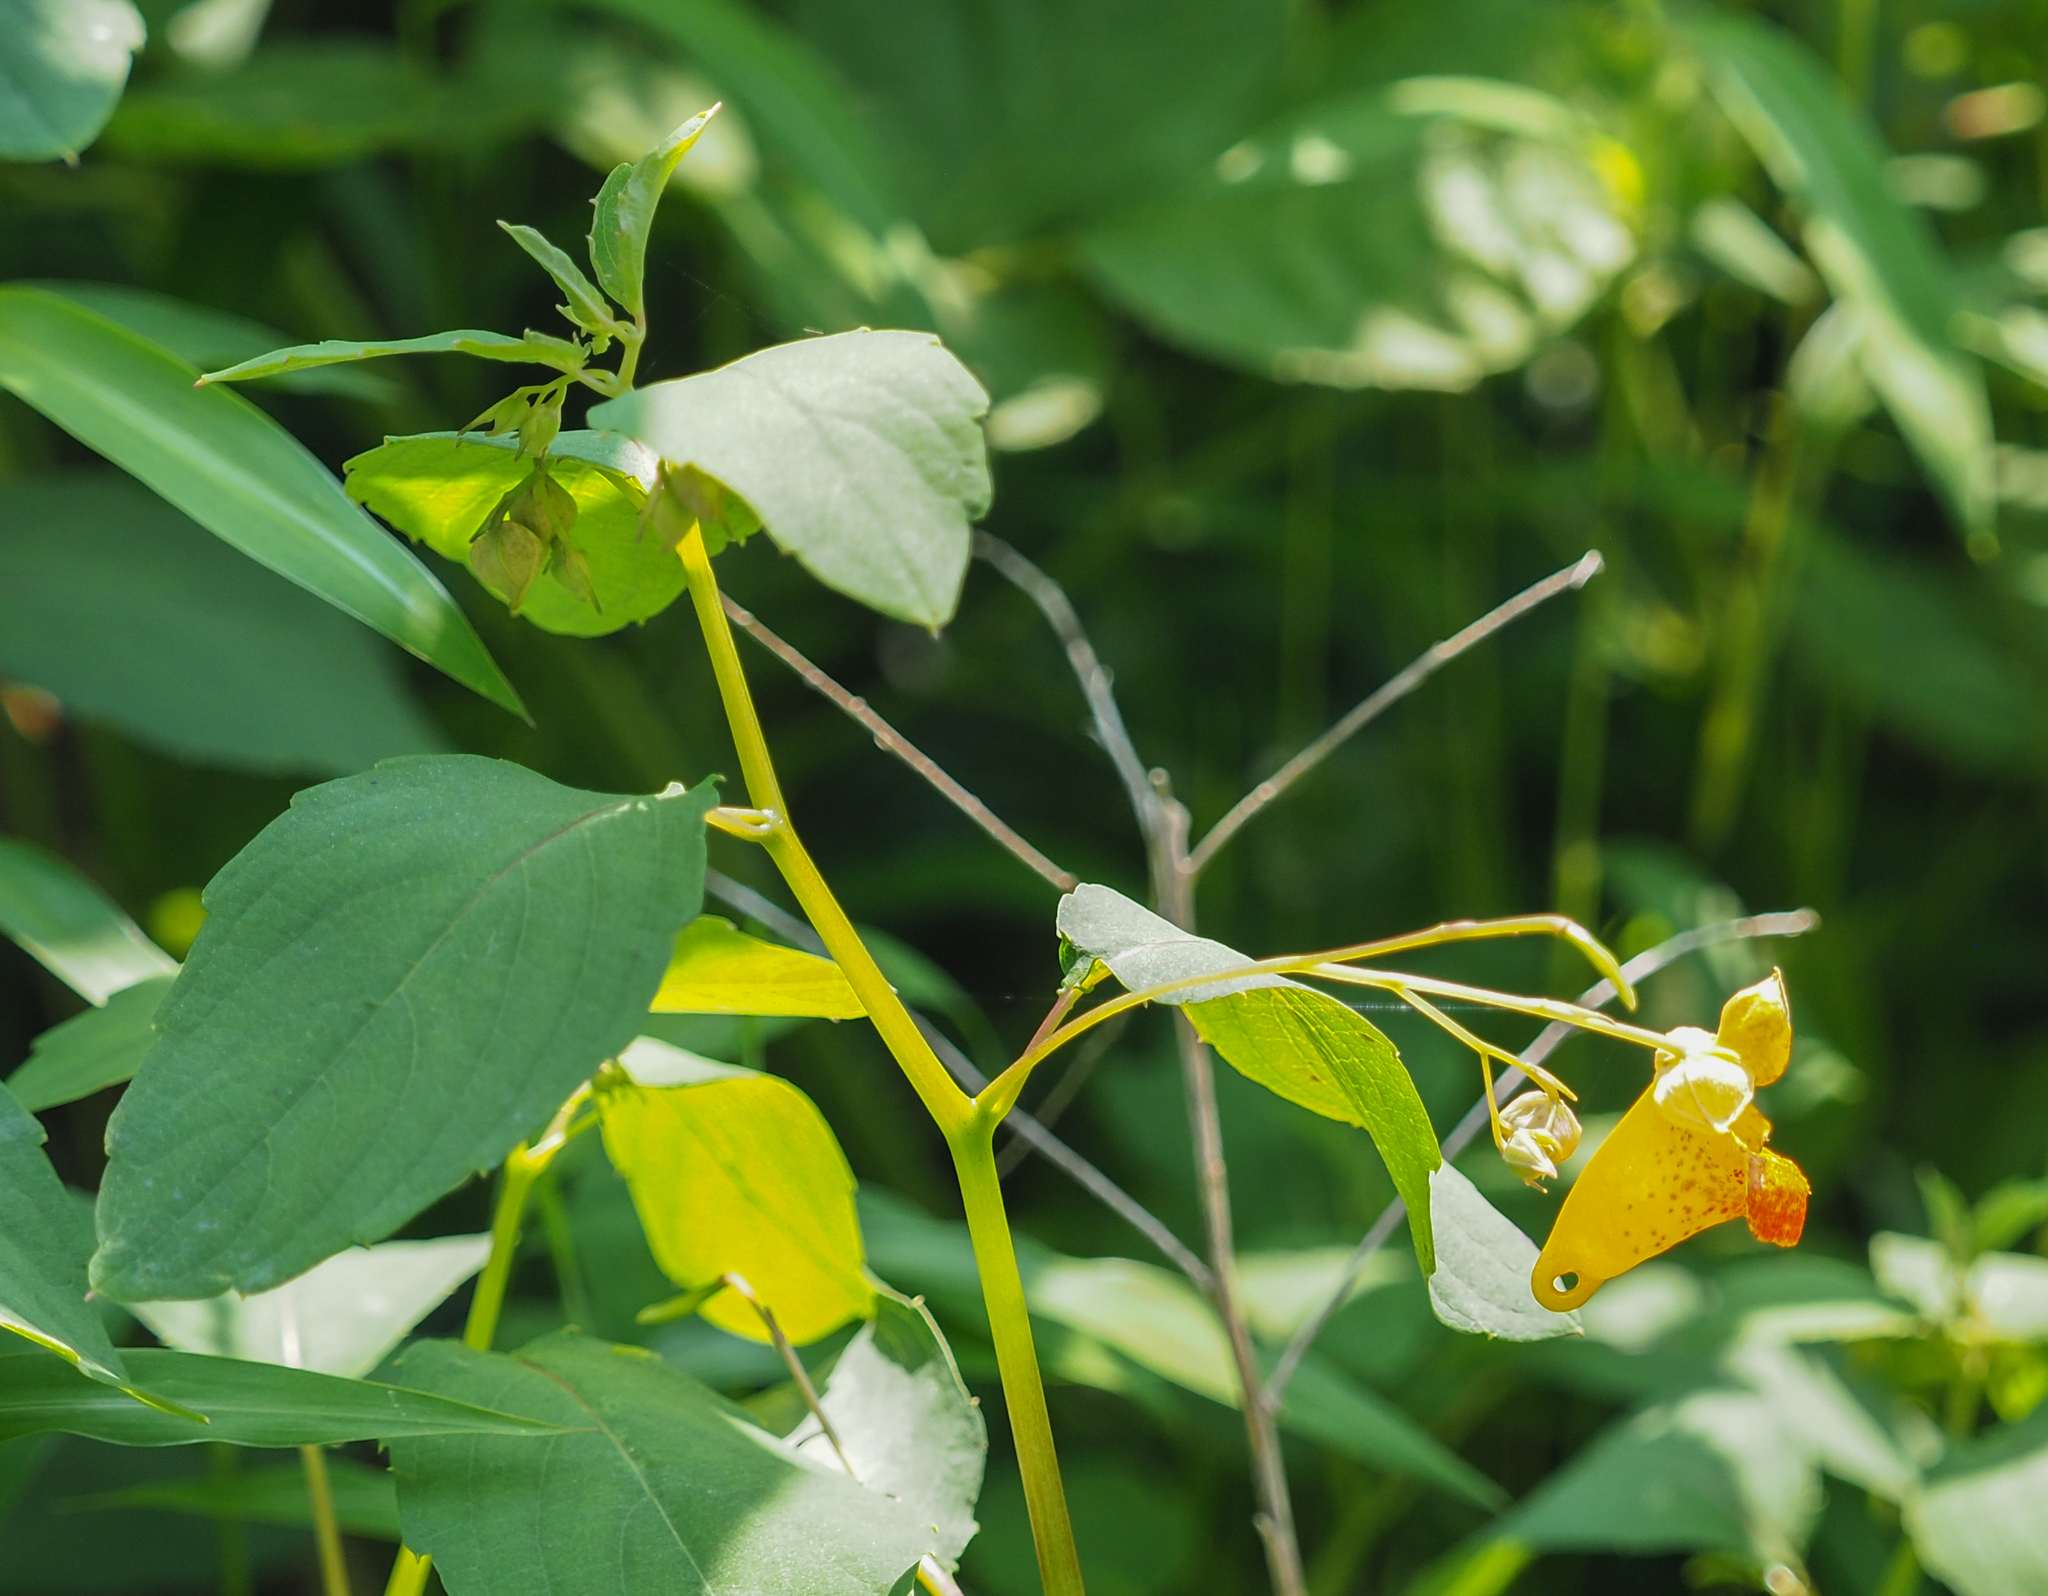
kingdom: Plantae
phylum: Tracheophyta
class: Magnoliopsida
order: Ericales
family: Balsaminaceae
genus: Impatiens
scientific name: Impatiens capensis
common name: Orange balsam
